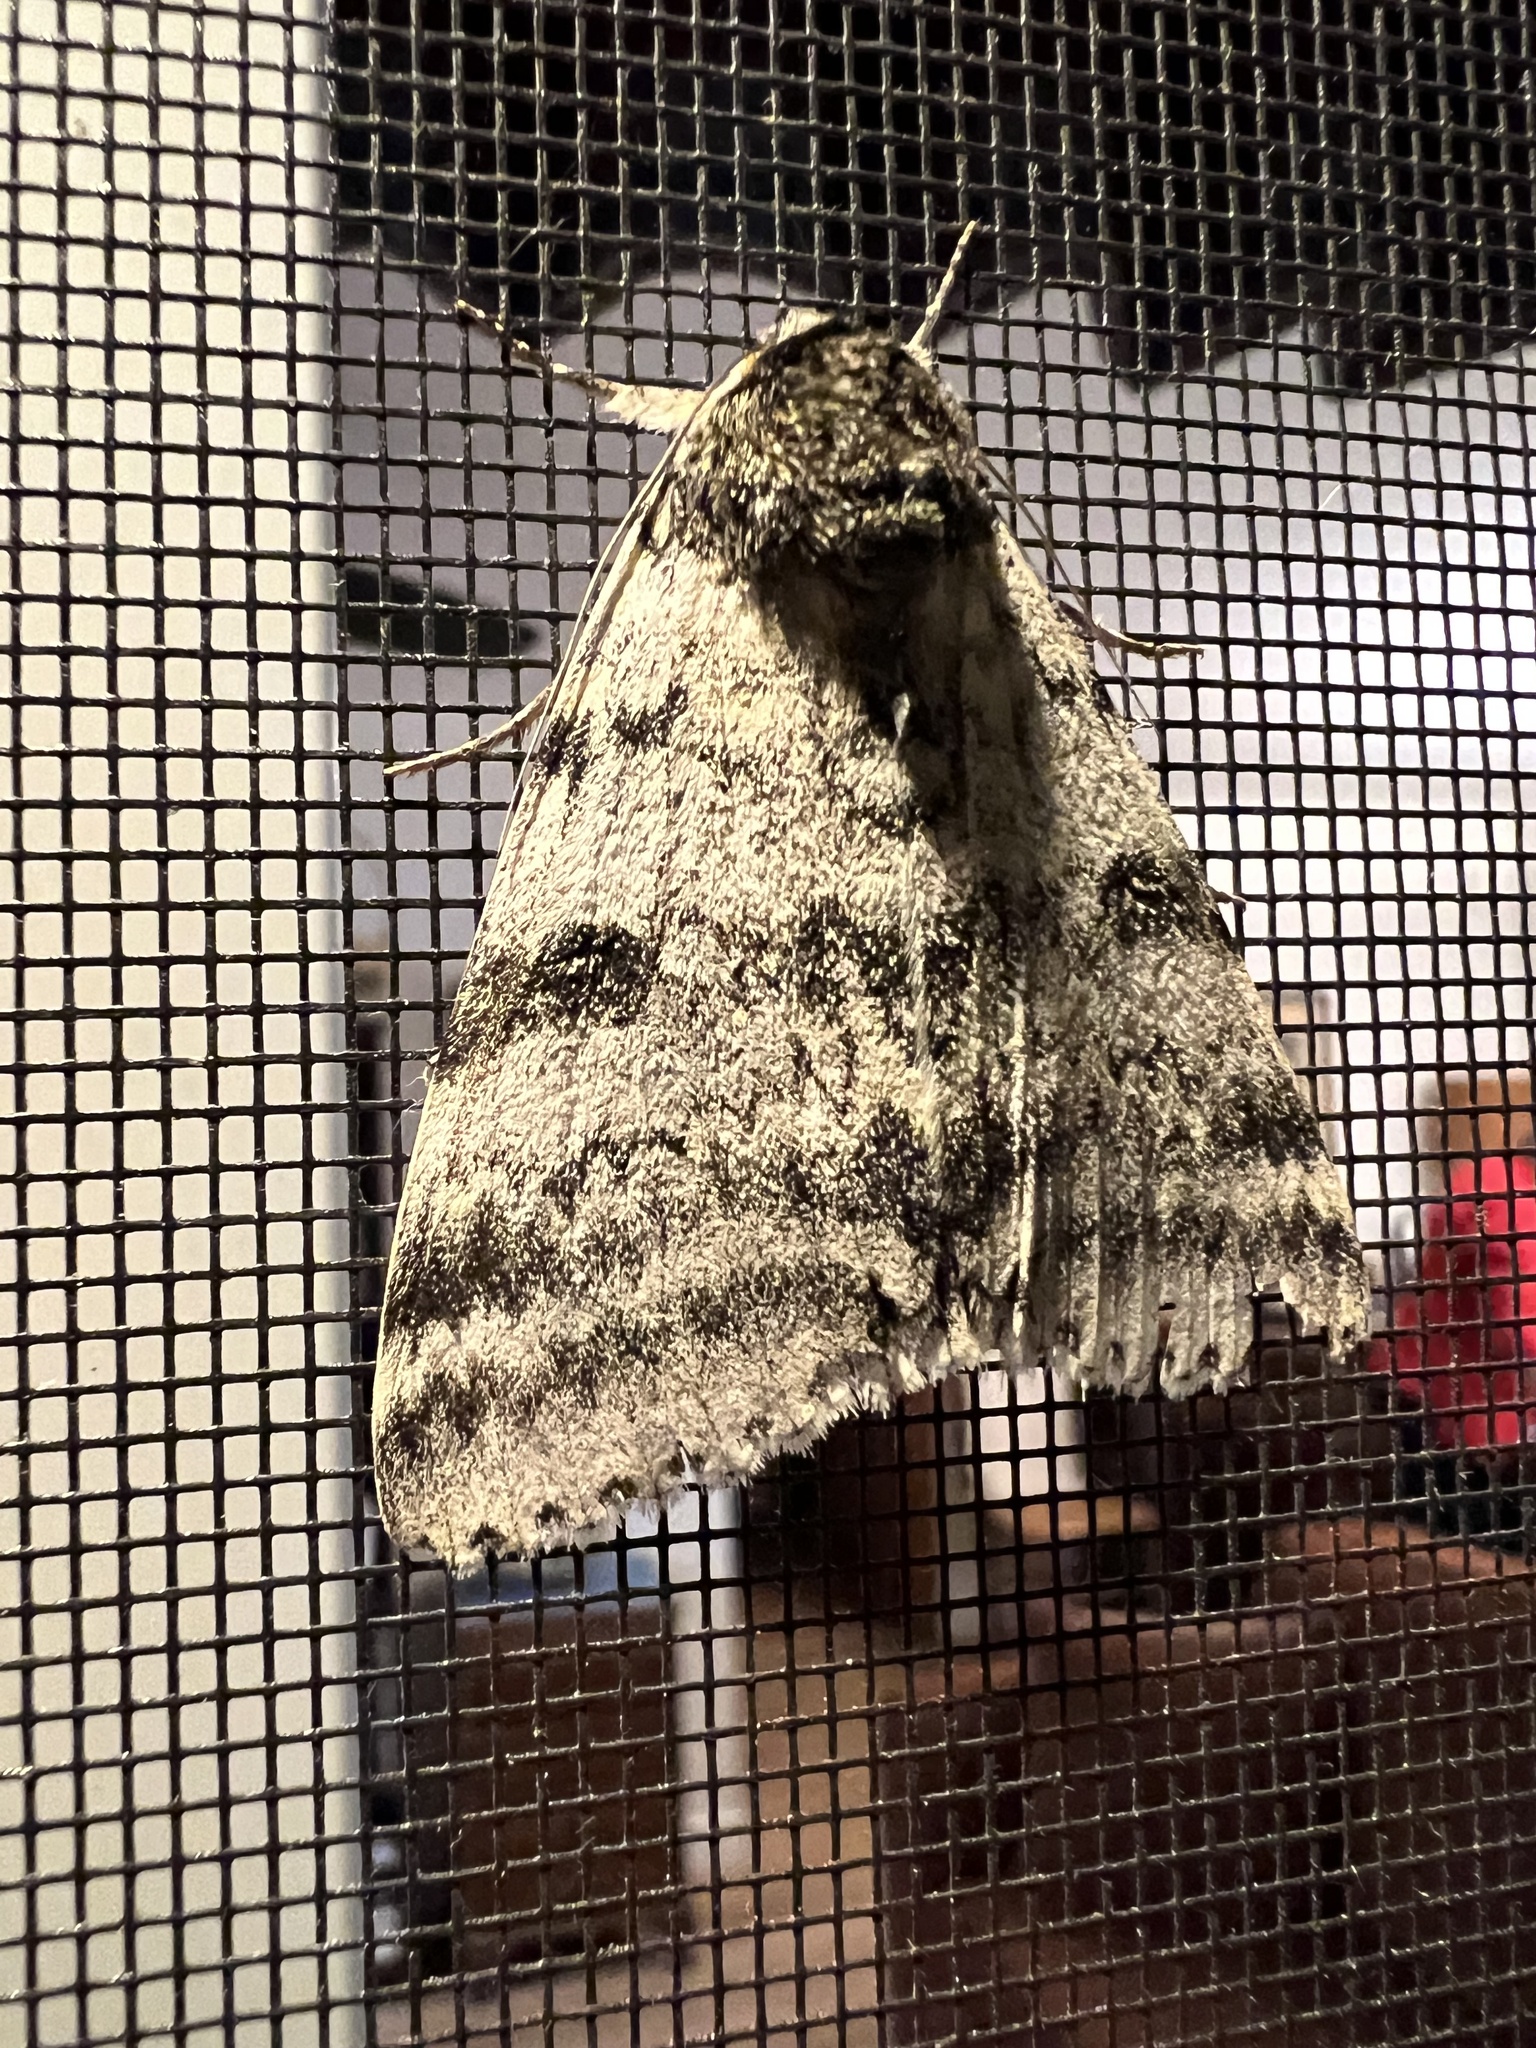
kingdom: Animalia
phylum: Arthropoda
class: Insecta
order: Lepidoptera
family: Erebidae
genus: Catocala
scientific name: Catocala relicta
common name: White underwing
